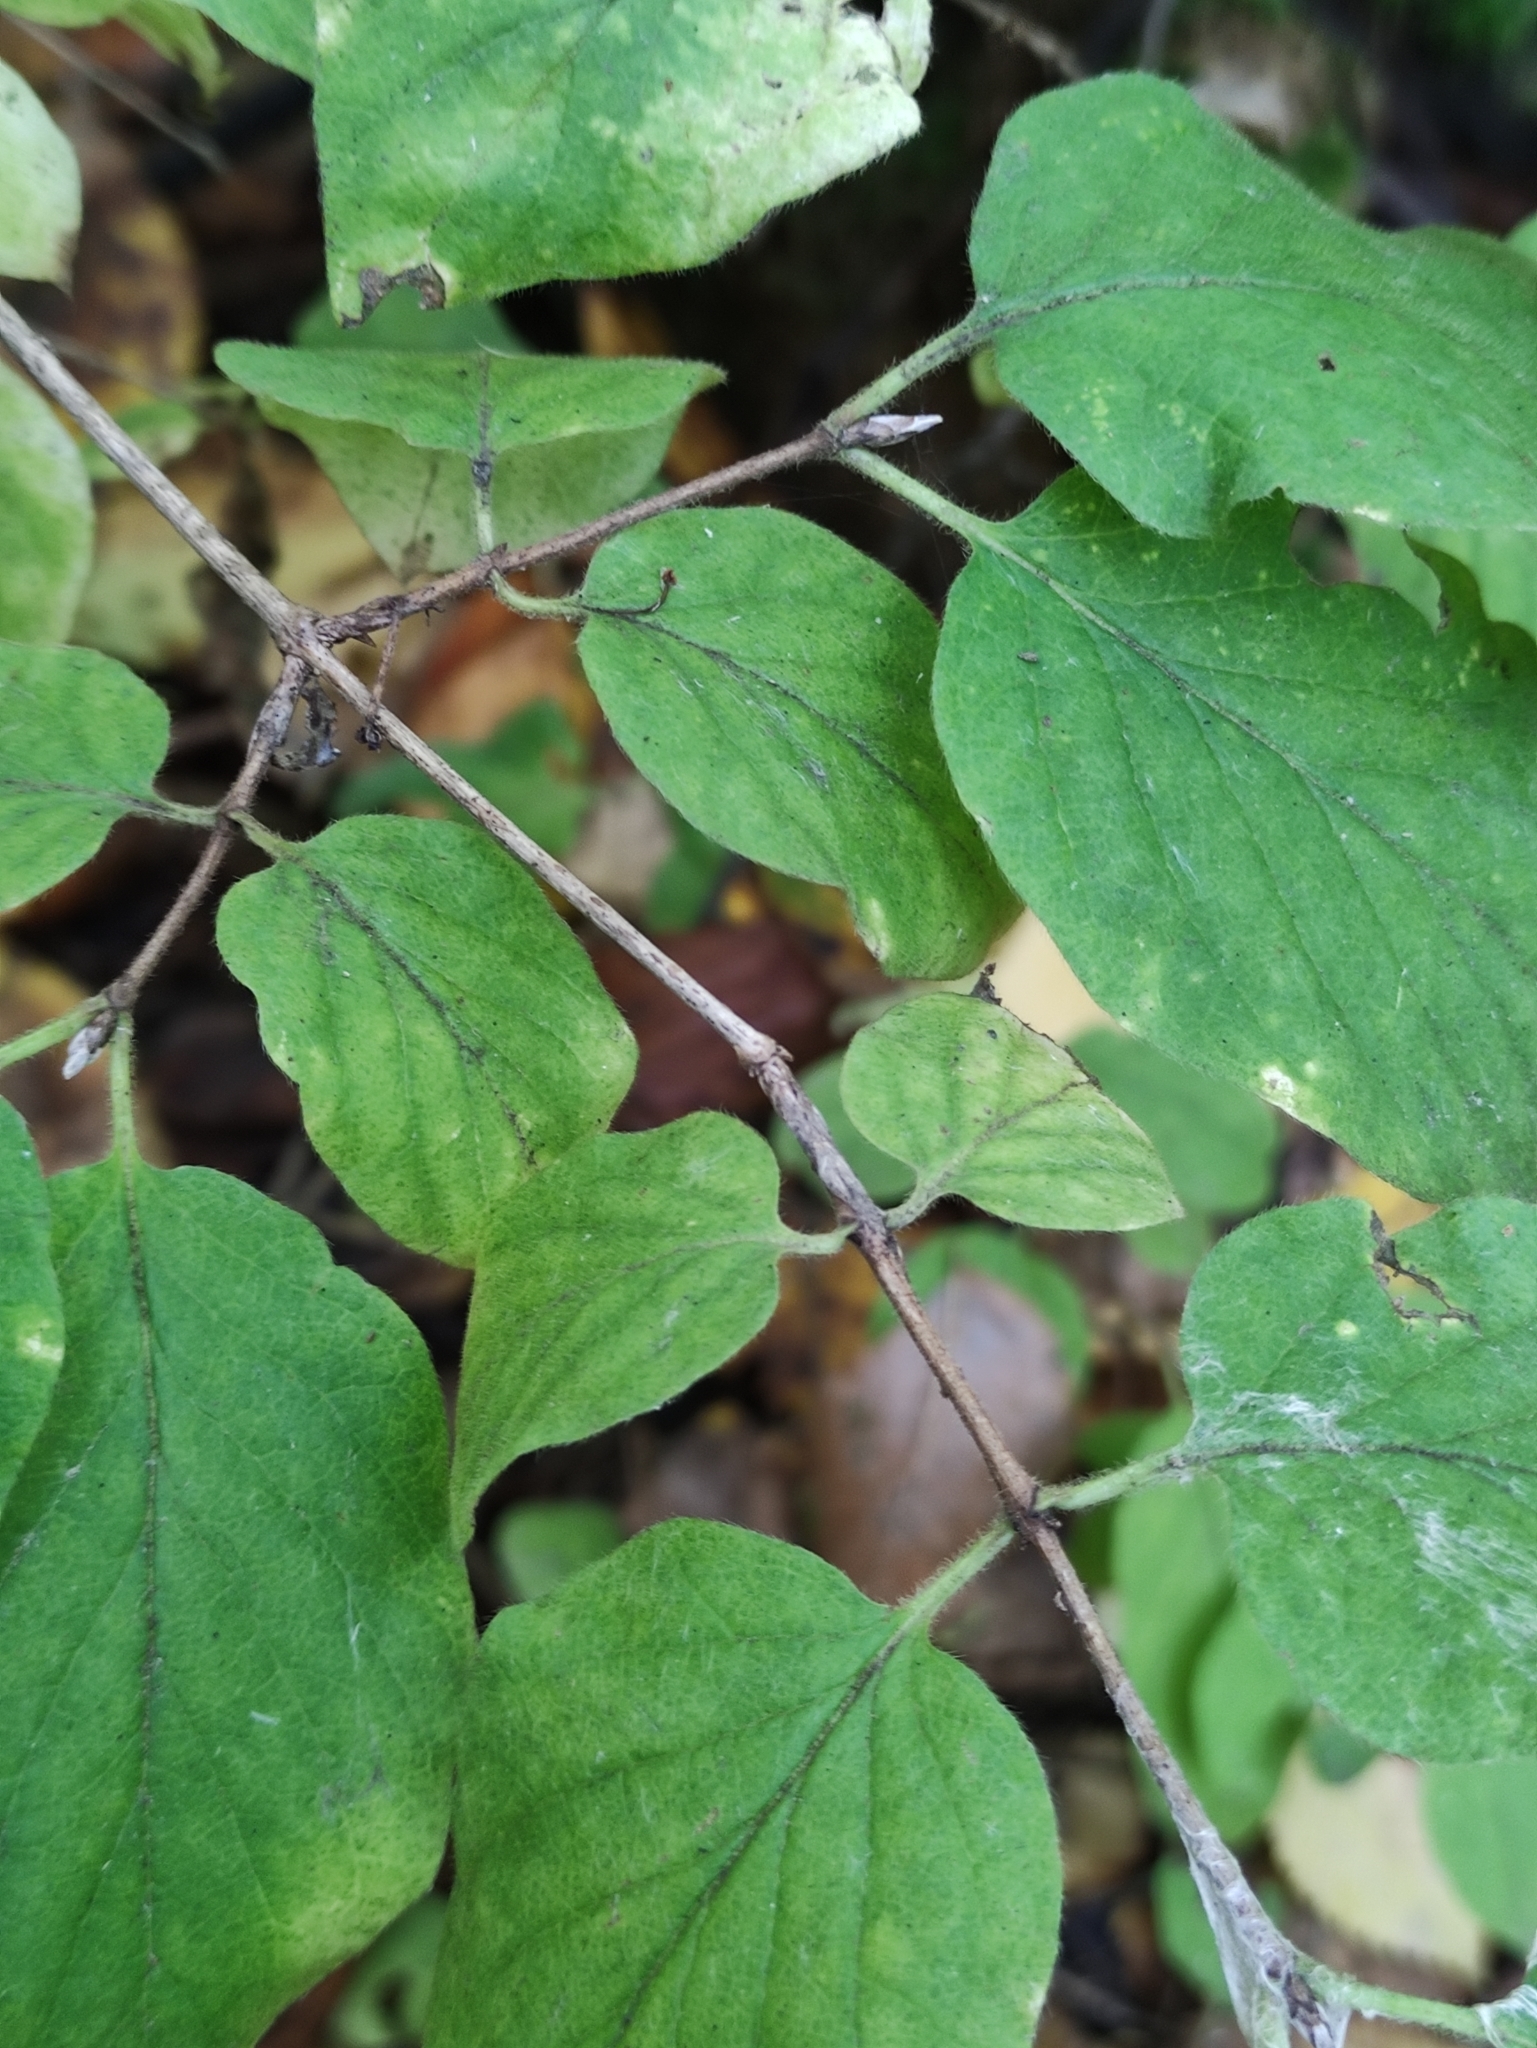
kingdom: Plantae
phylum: Tracheophyta
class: Magnoliopsida
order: Dipsacales
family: Caprifoliaceae
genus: Lonicera
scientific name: Lonicera xylosteum
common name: Fly honeysuckle
